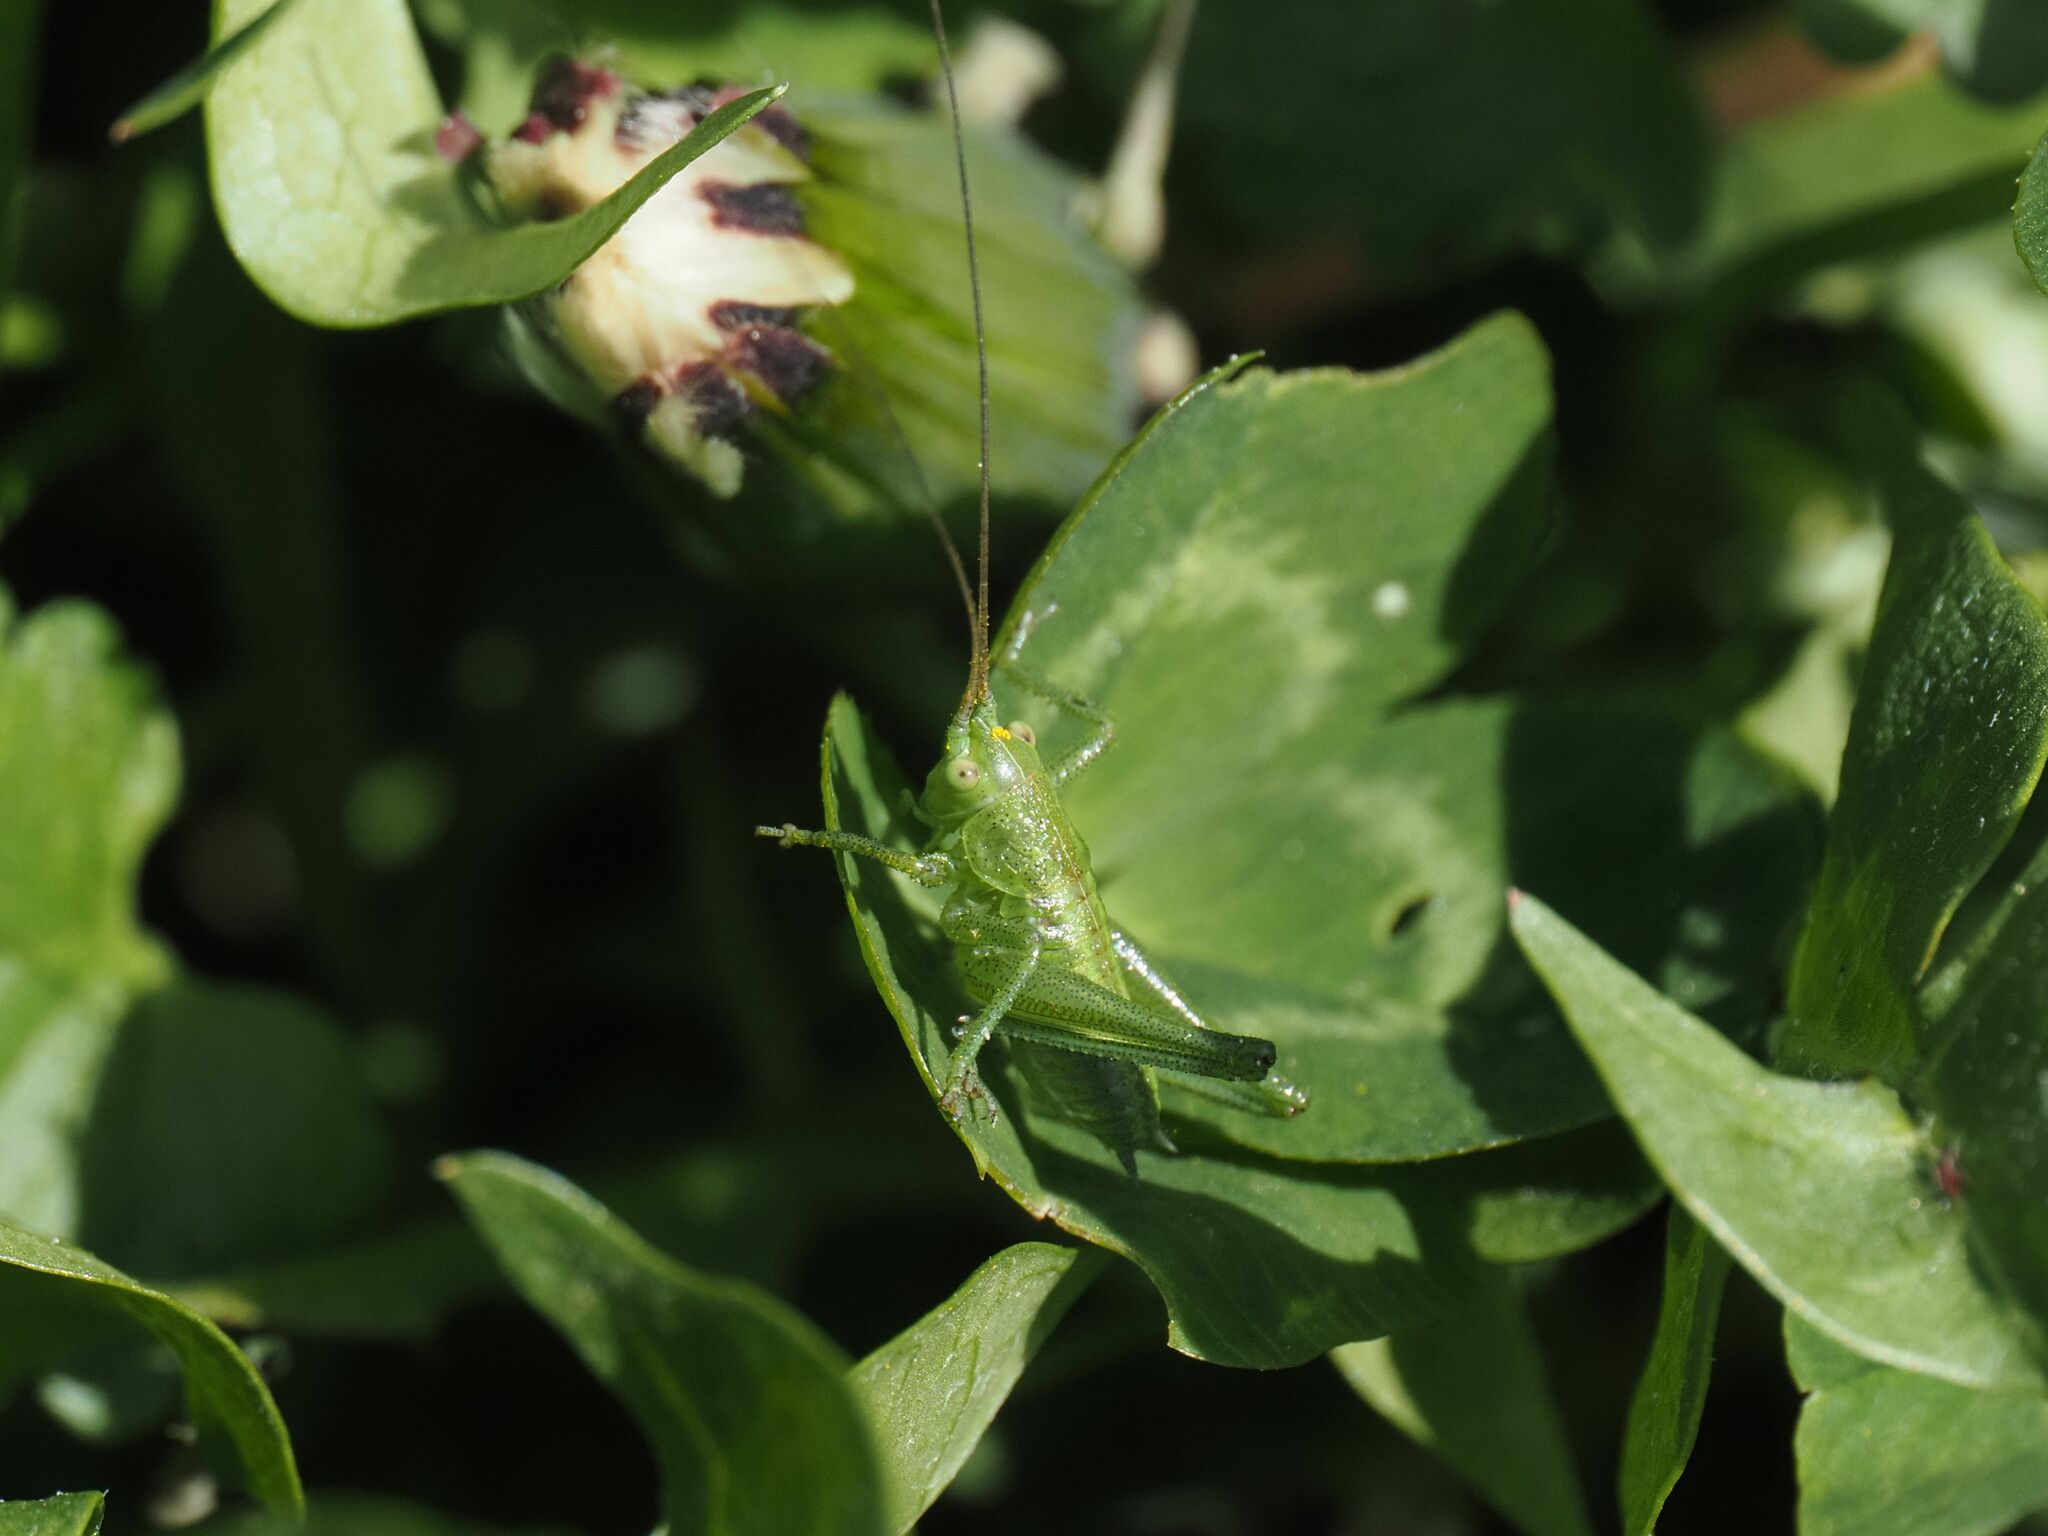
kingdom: Animalia
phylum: Arthropoda
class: Insecta
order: Orthoptera
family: Tettigoniidae
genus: Tettigonia
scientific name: Tettigonia viridissima
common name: Great green bush-cricket
